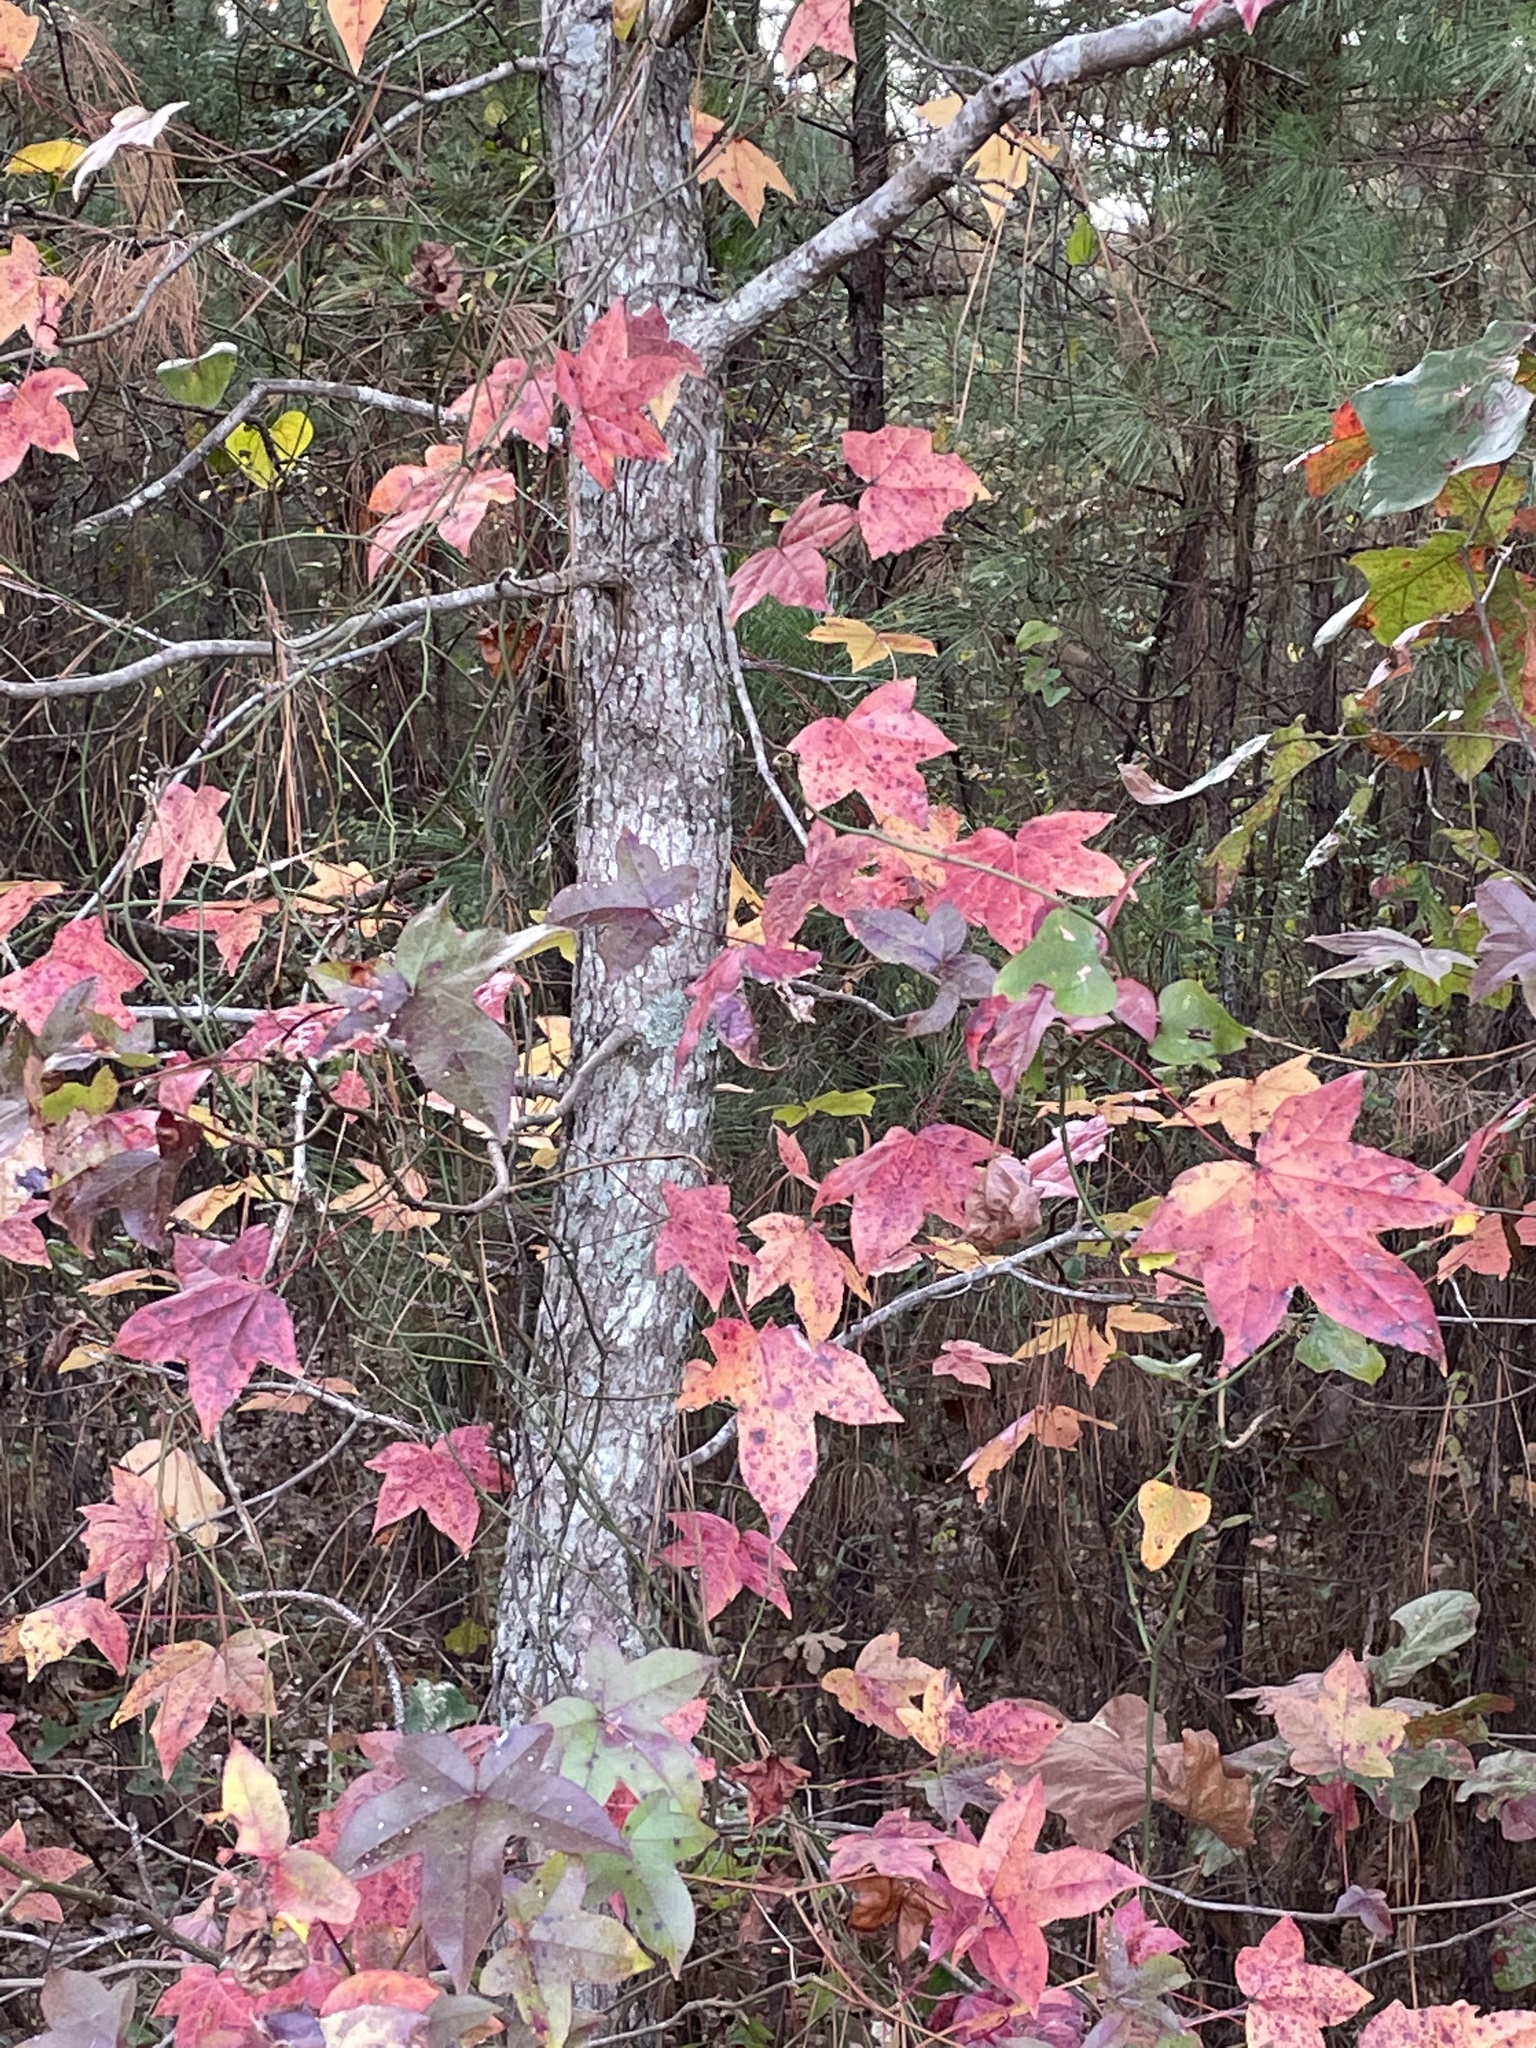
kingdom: Plantae
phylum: Tracheophyta
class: Magnoliopsida
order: Saxifragales
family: Altingiaceae
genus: Liquidambar
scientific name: Liquidambar styraciflua
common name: Sweet gum
